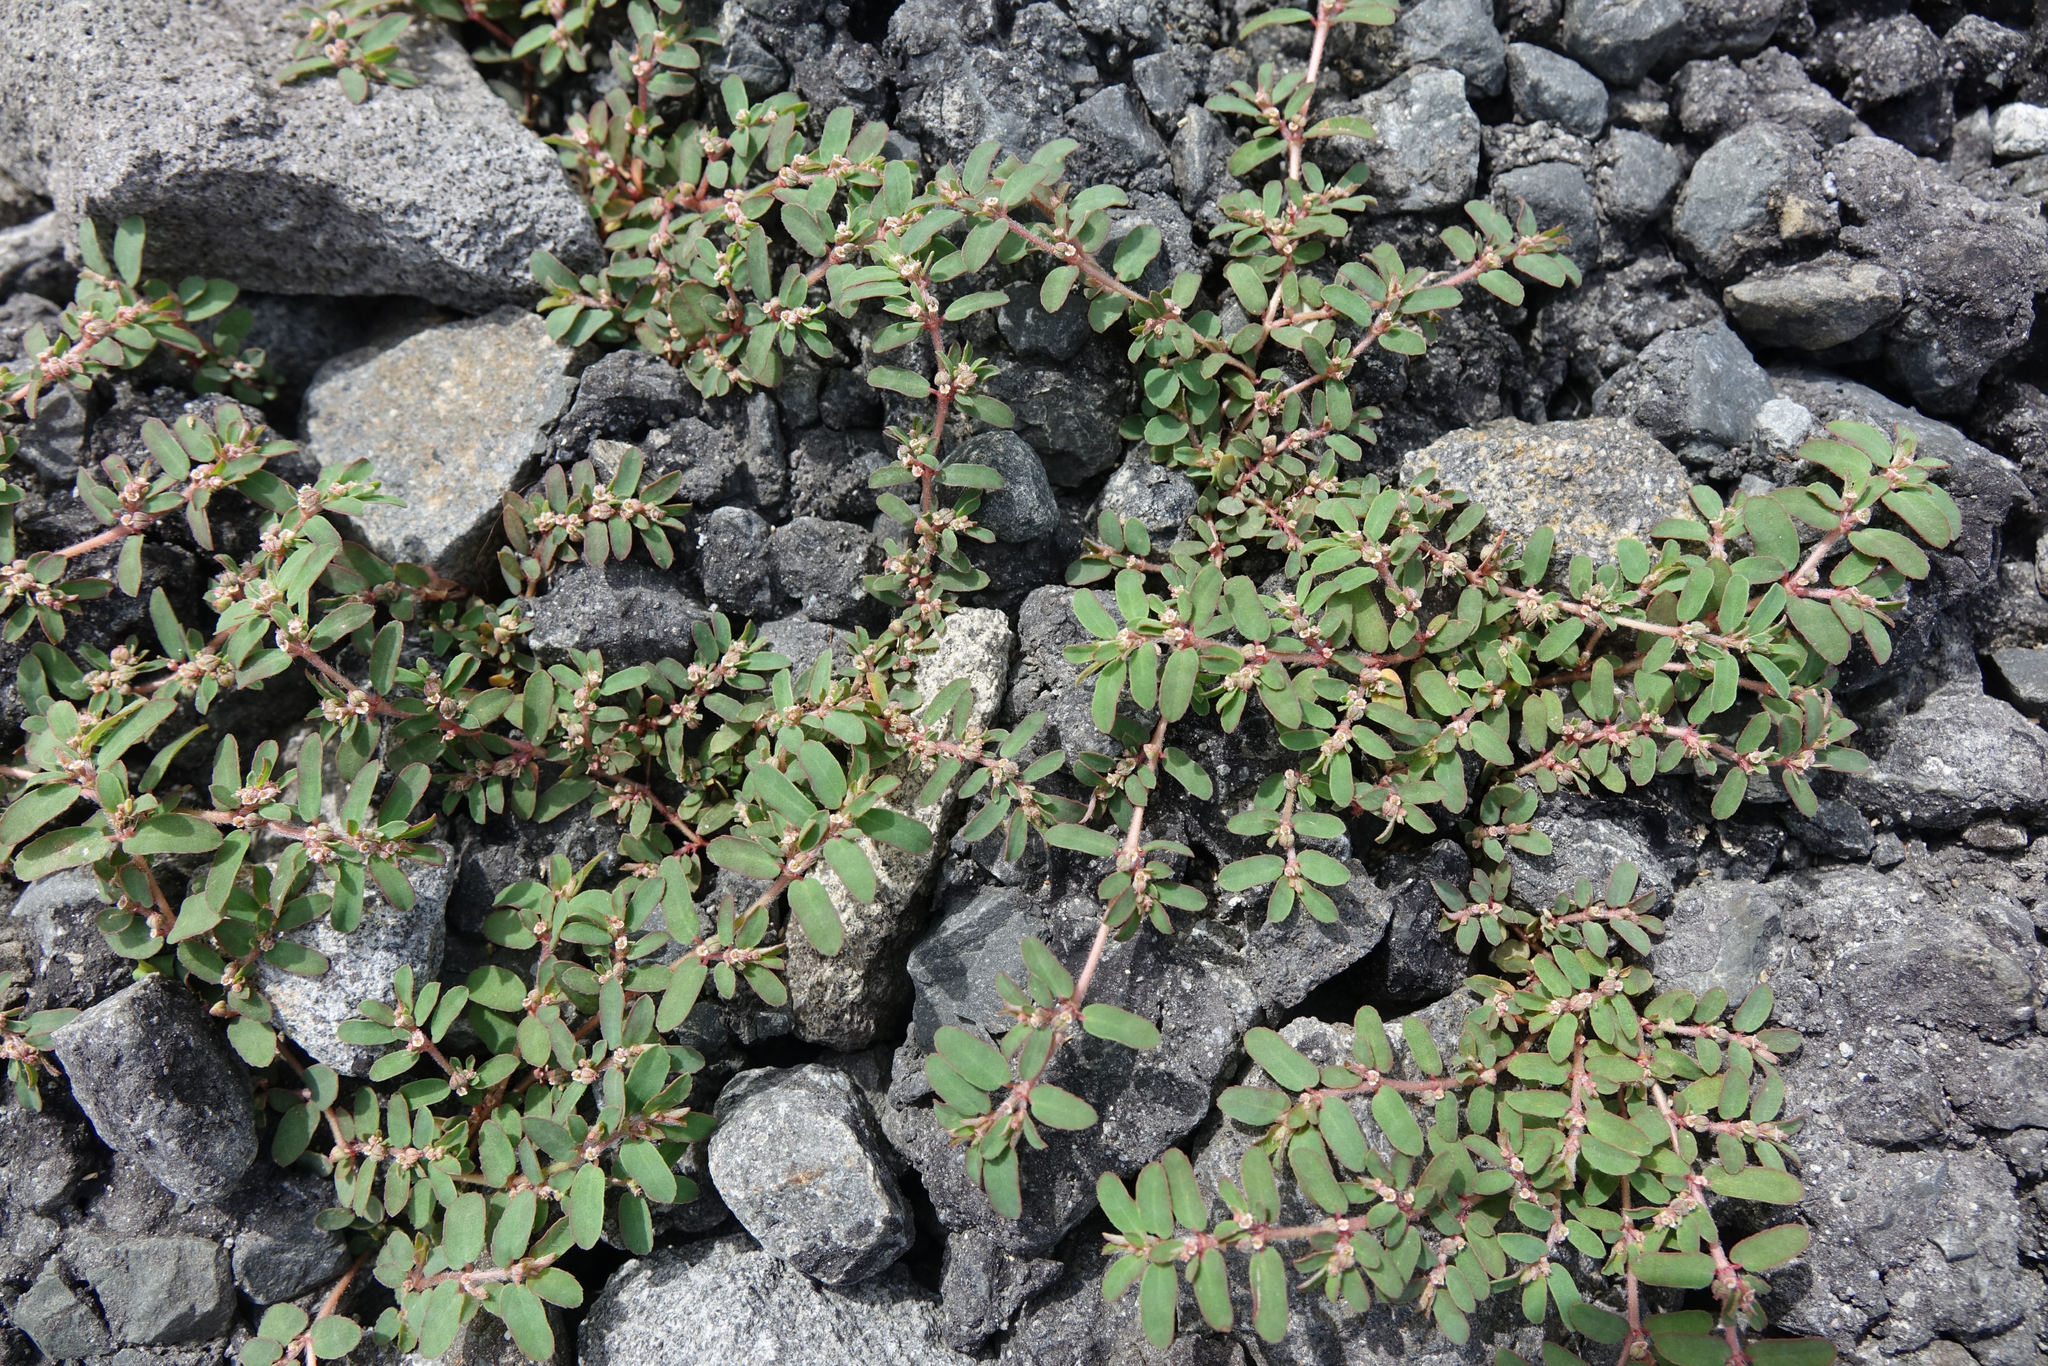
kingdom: Plantae
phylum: Tracheophyta
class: Magnoliopsida
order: Malpighiales
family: Euphorbiaceae
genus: Euphorbia
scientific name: Euphorbia maculata
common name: Spotted spurge
